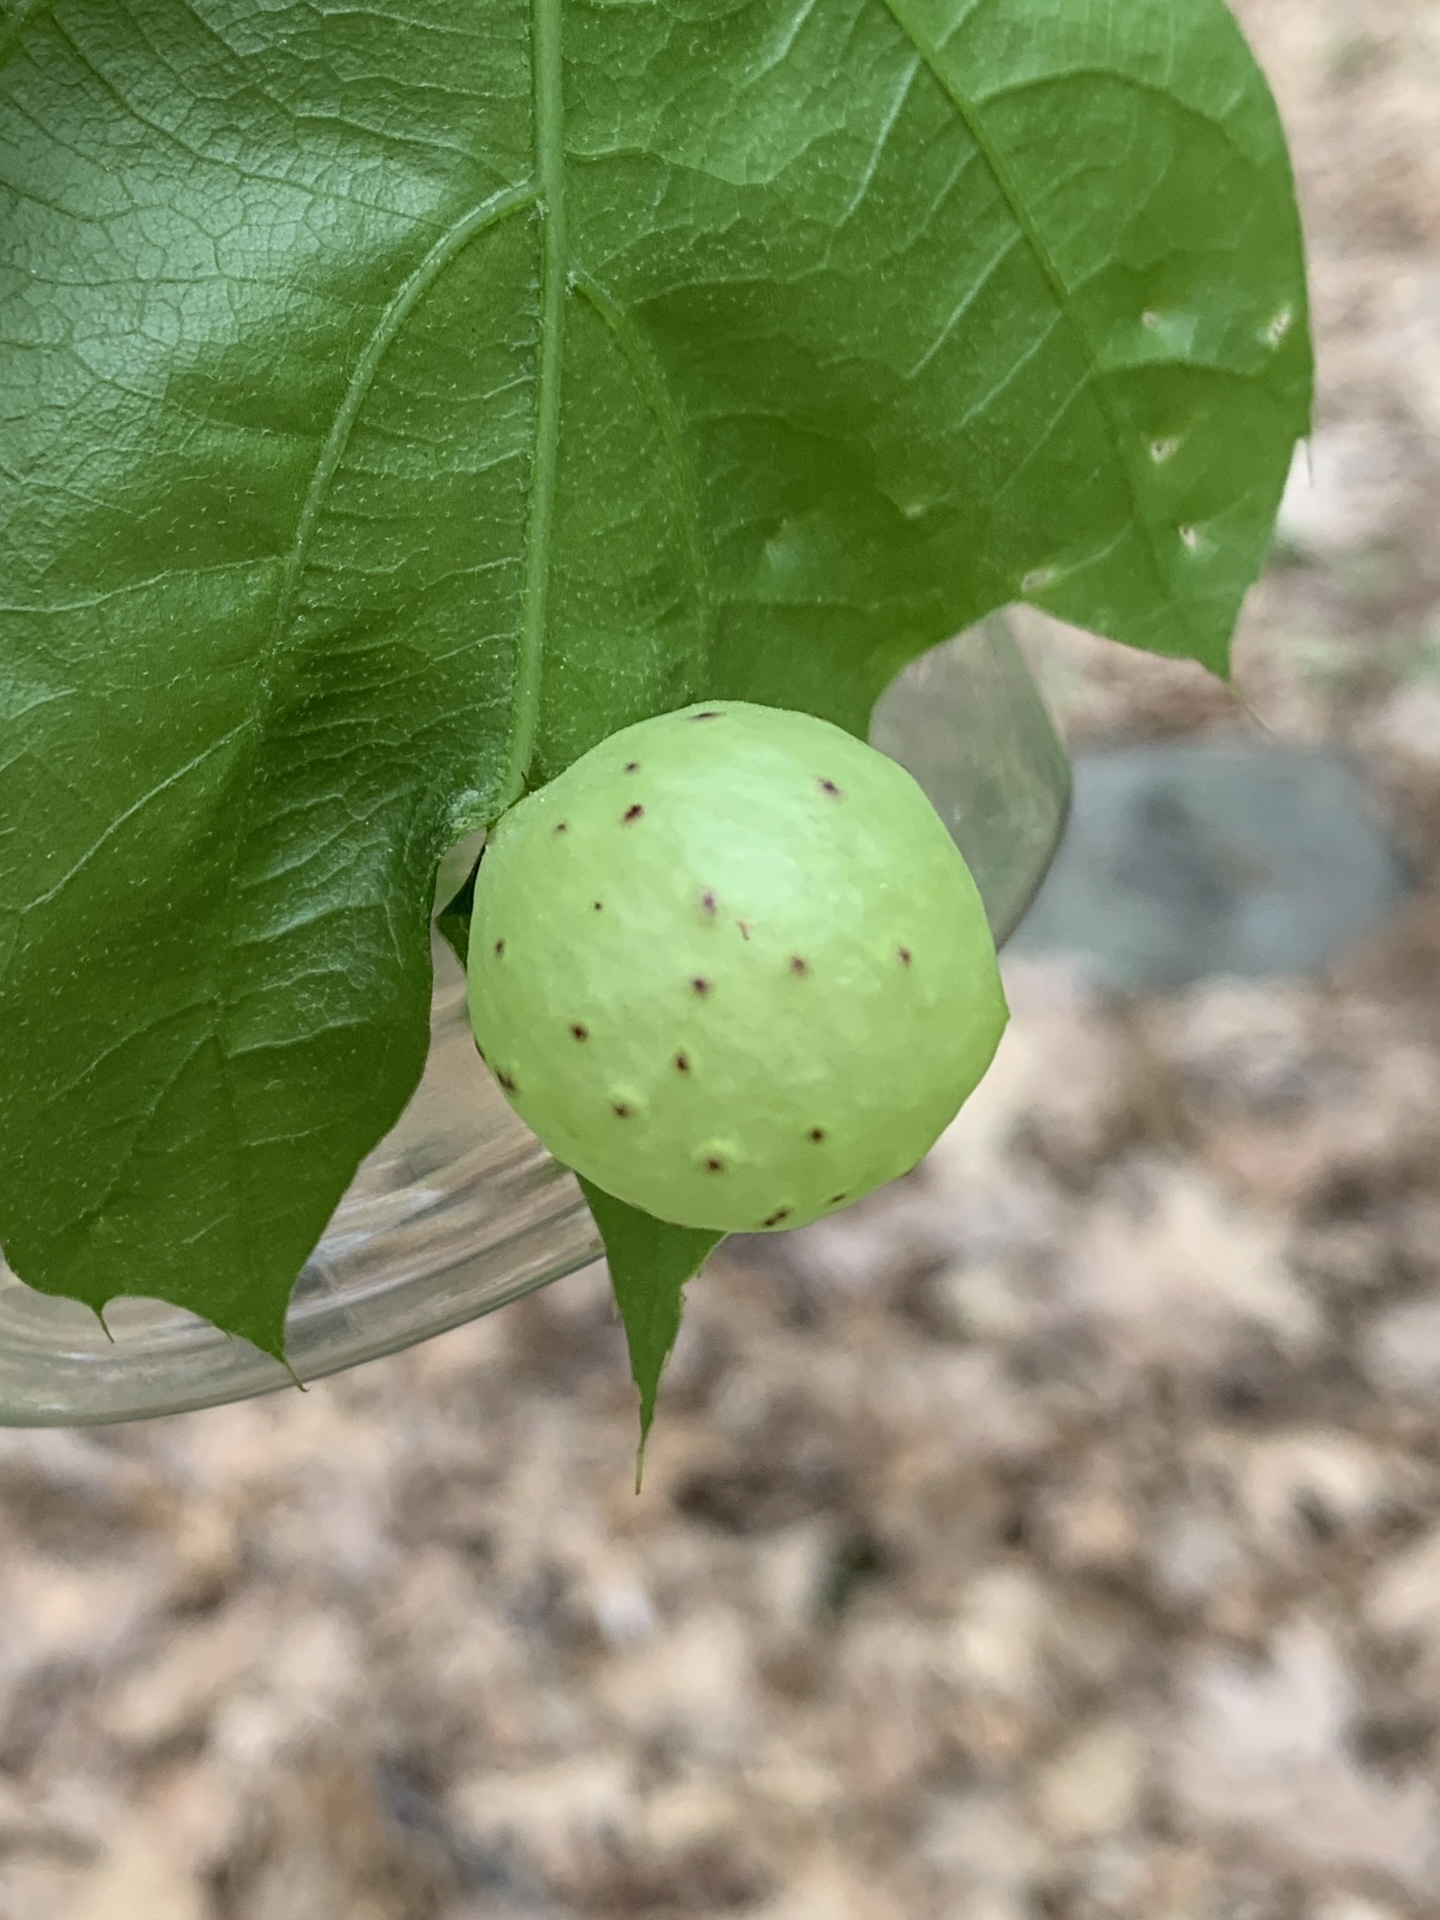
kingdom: Animalia
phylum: Arthropoda
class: Insecta
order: Hymenoptera
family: Cynipidae
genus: Amphibolips
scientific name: Amphibolips
